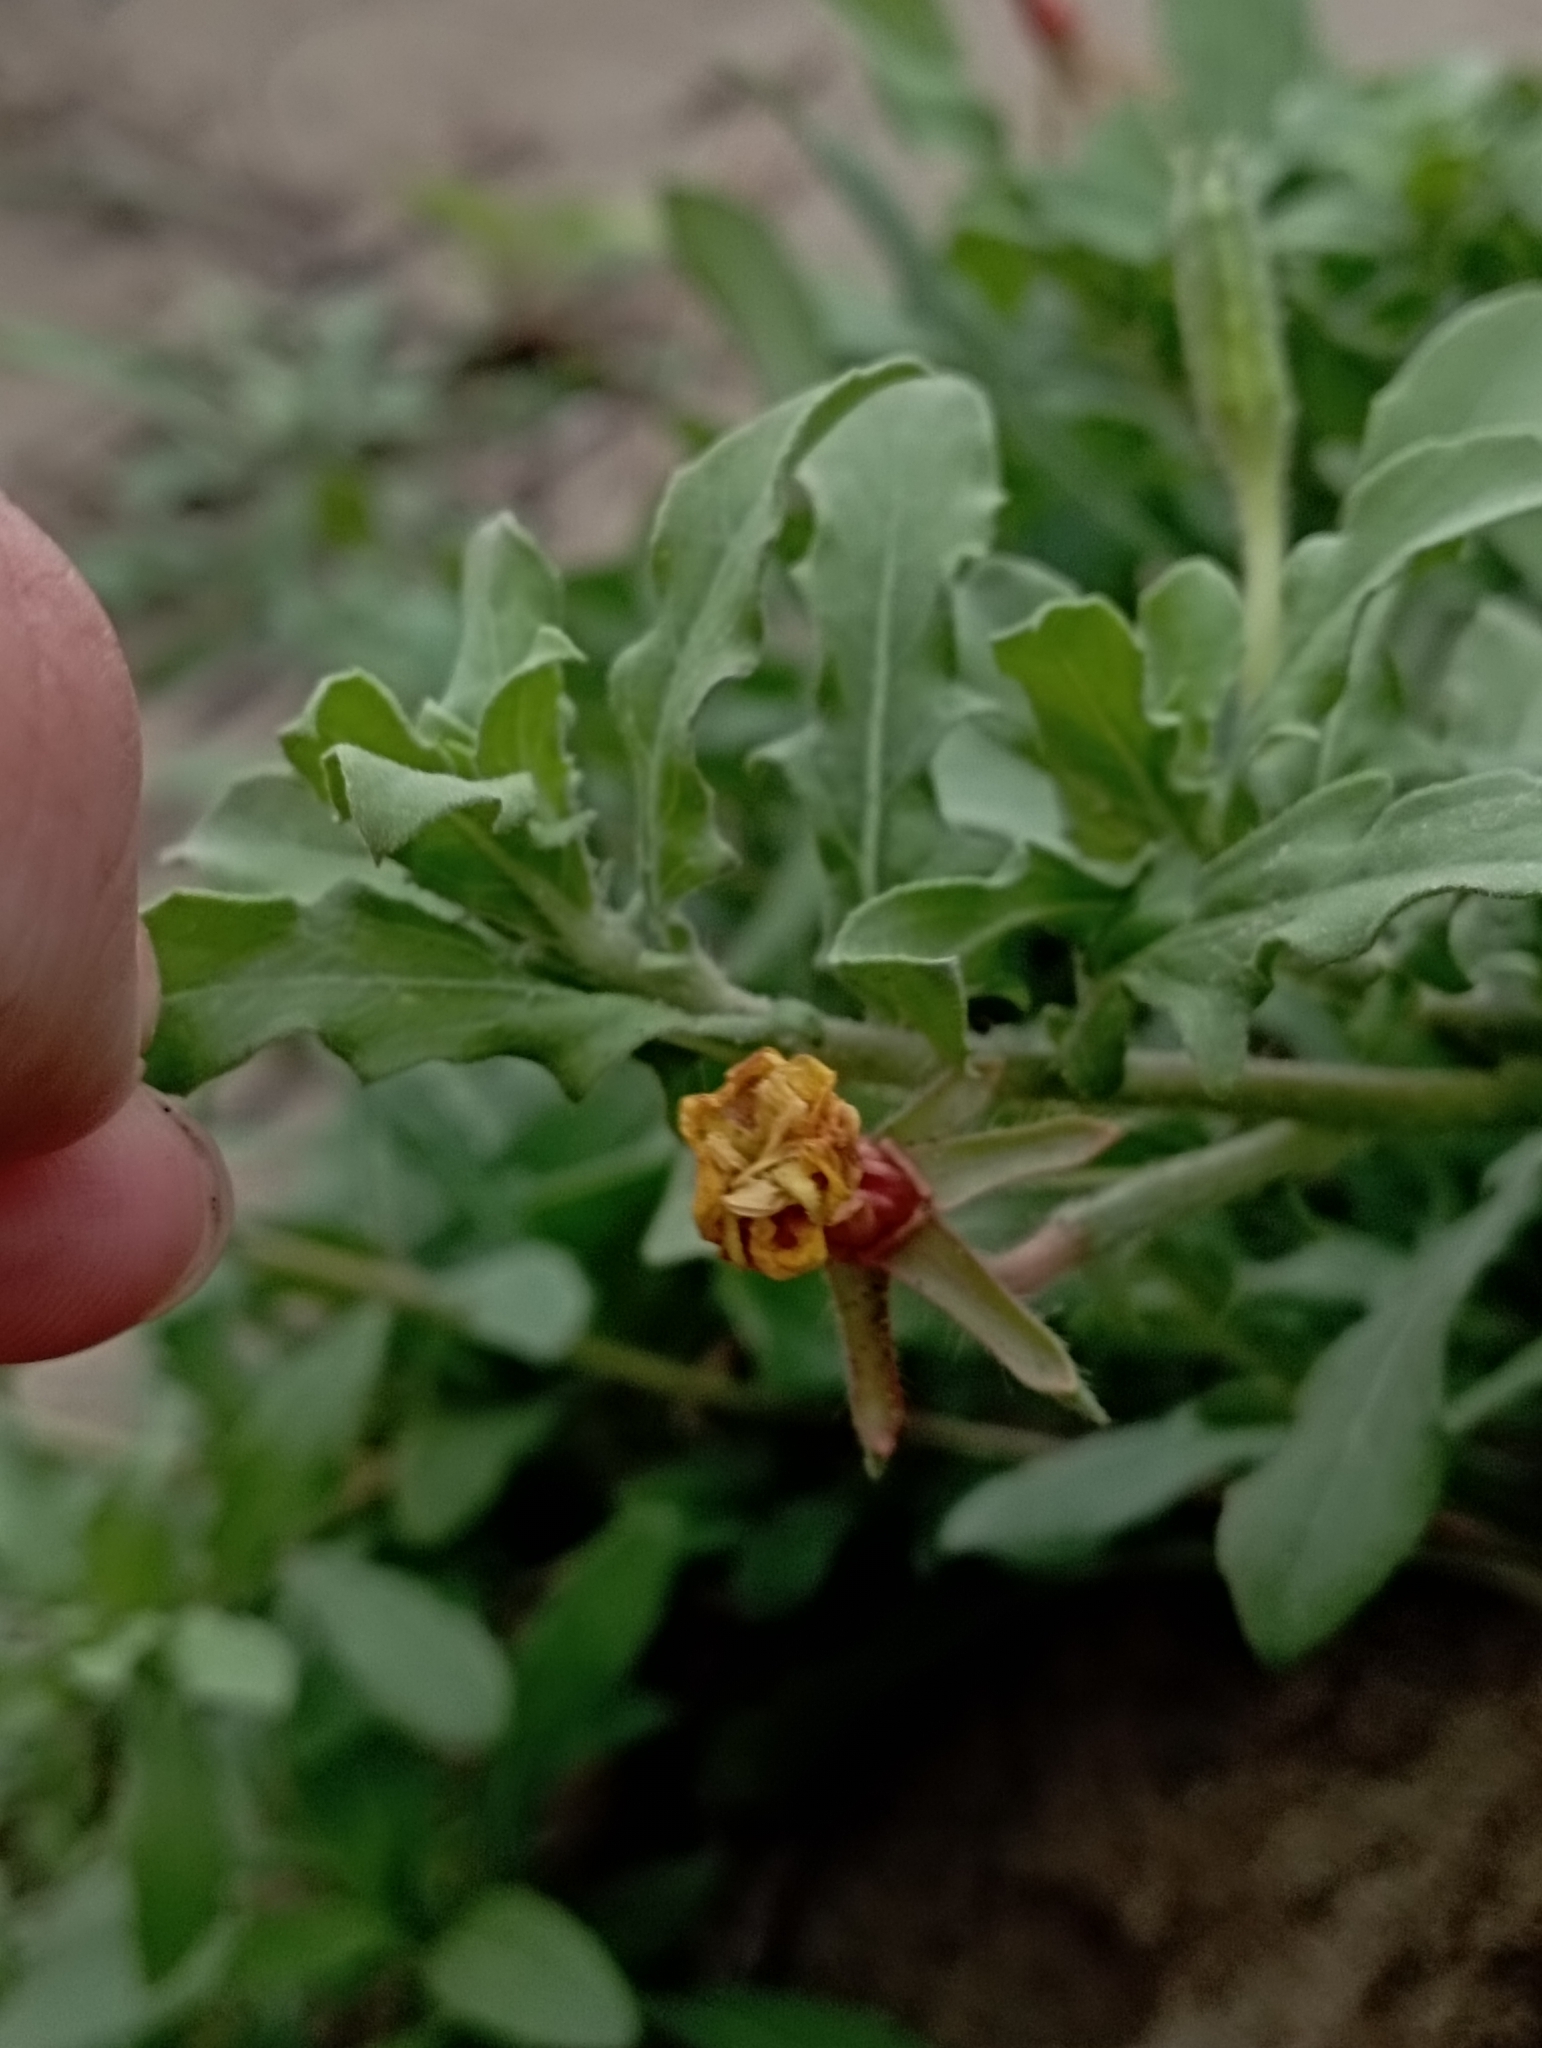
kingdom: Plantae
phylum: Tracheophyta
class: Magnoliopsida
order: Myrtales
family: Onagraceae
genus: Oenothera
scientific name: Oenothera laciniata
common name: Cut-leaved evening-primrose
